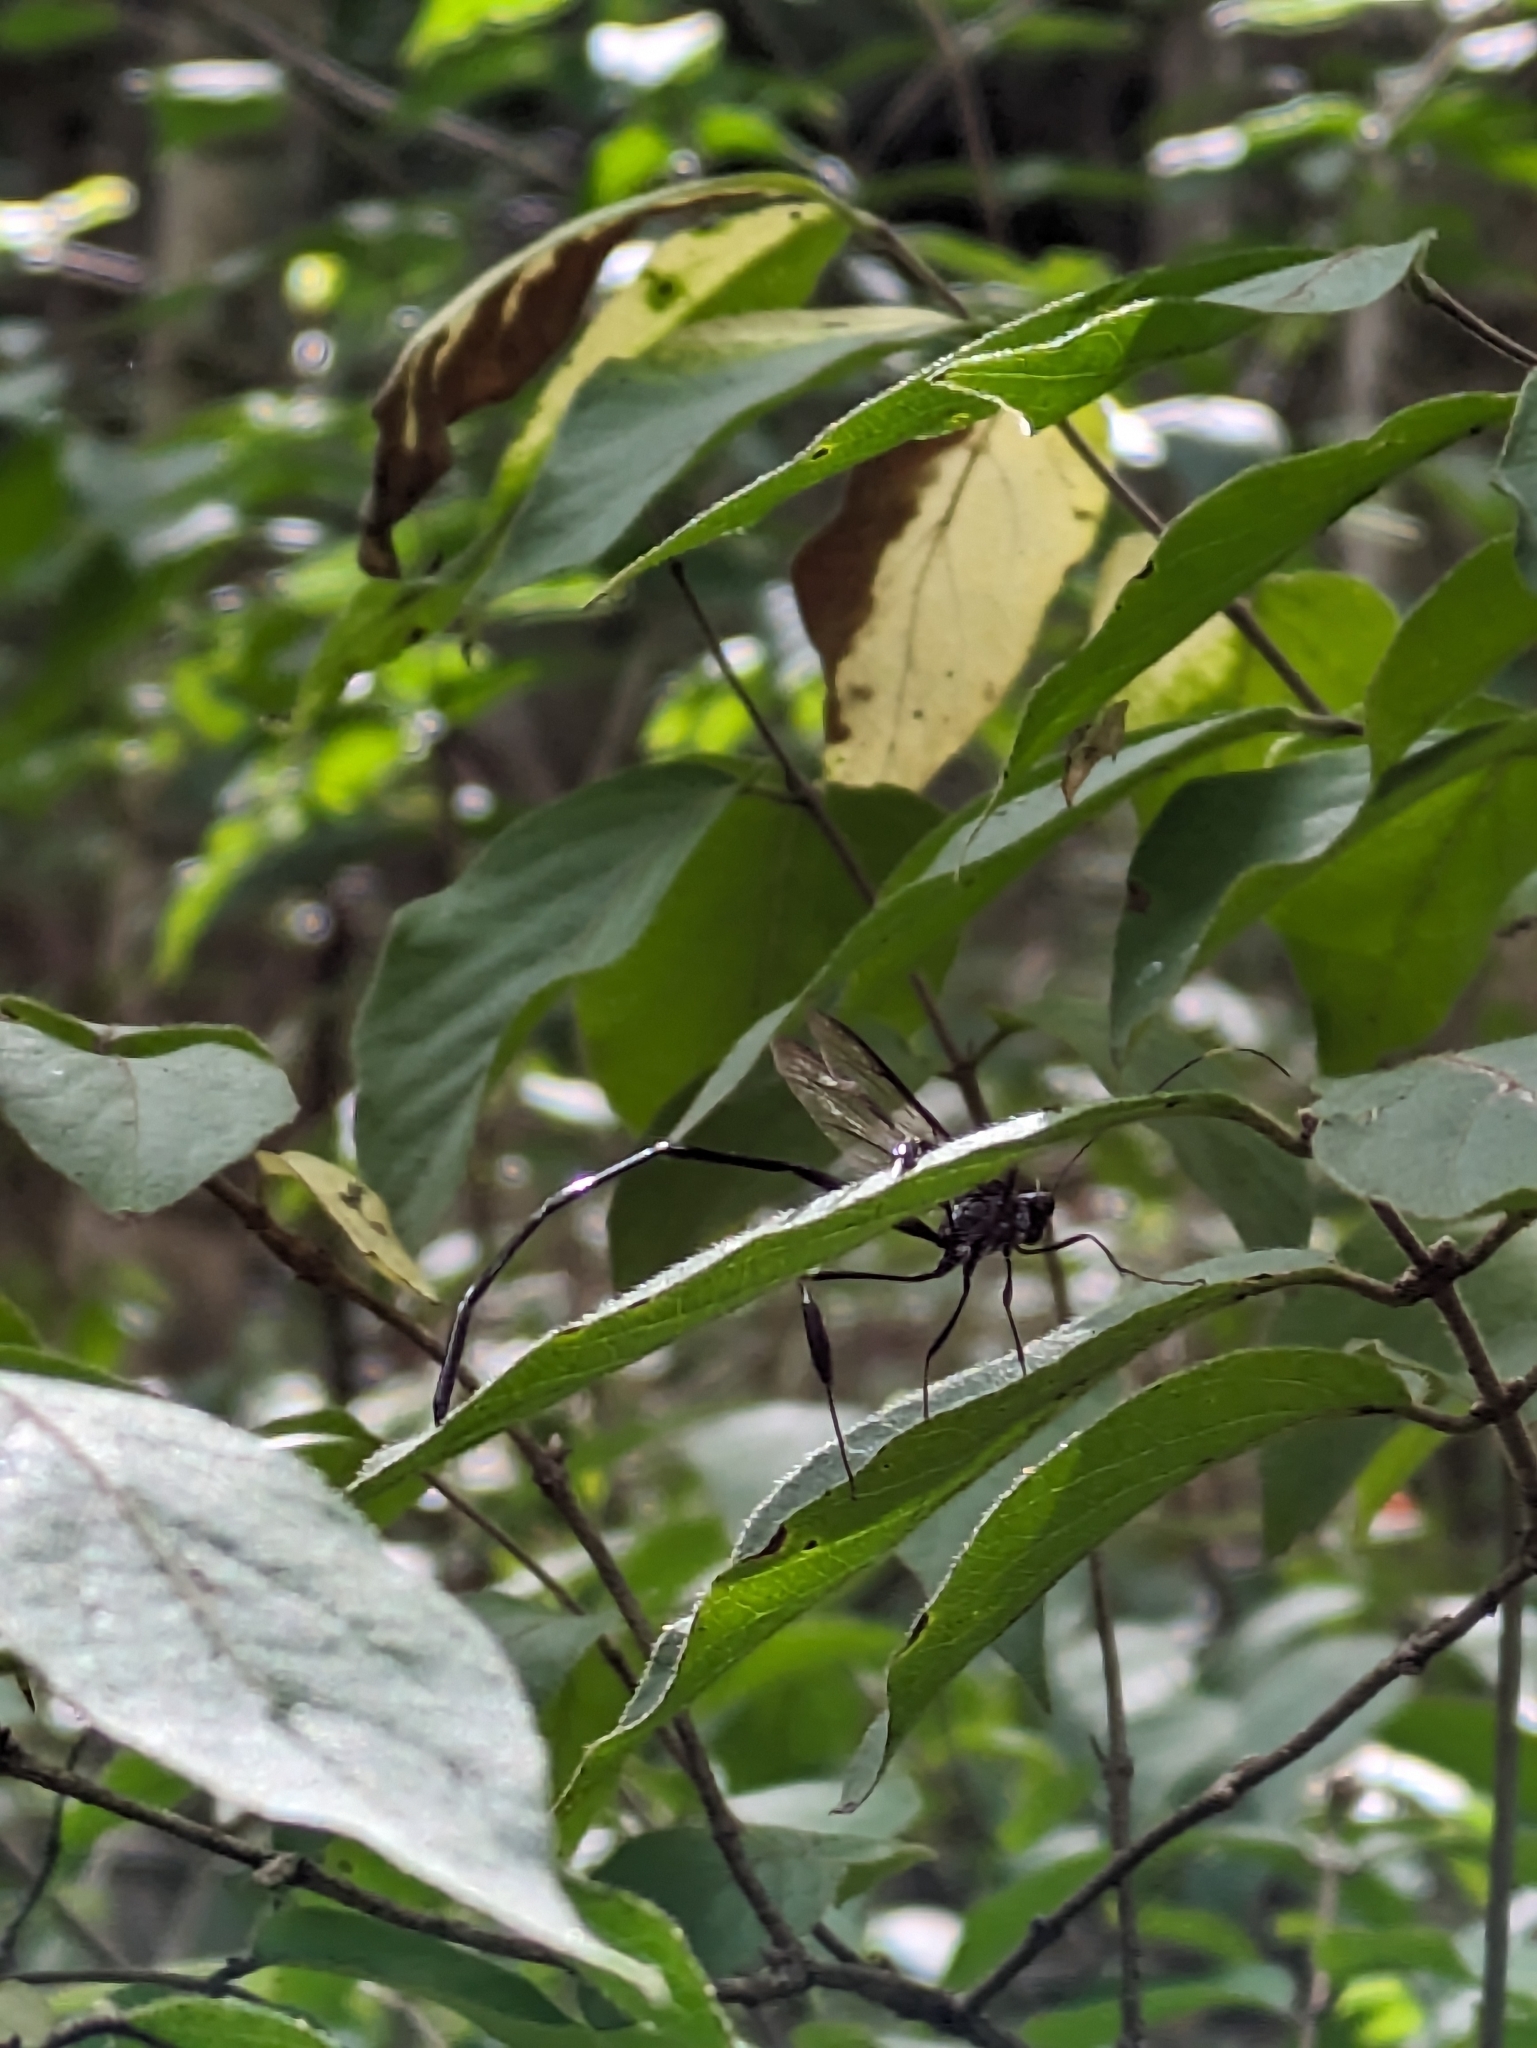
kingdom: Animalia
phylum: Arthropoda
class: Insecta
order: Hymenoptera
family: Pelecinidae
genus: Pelecinus
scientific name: Pelecinus polyturator
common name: American pelecinid wasp
